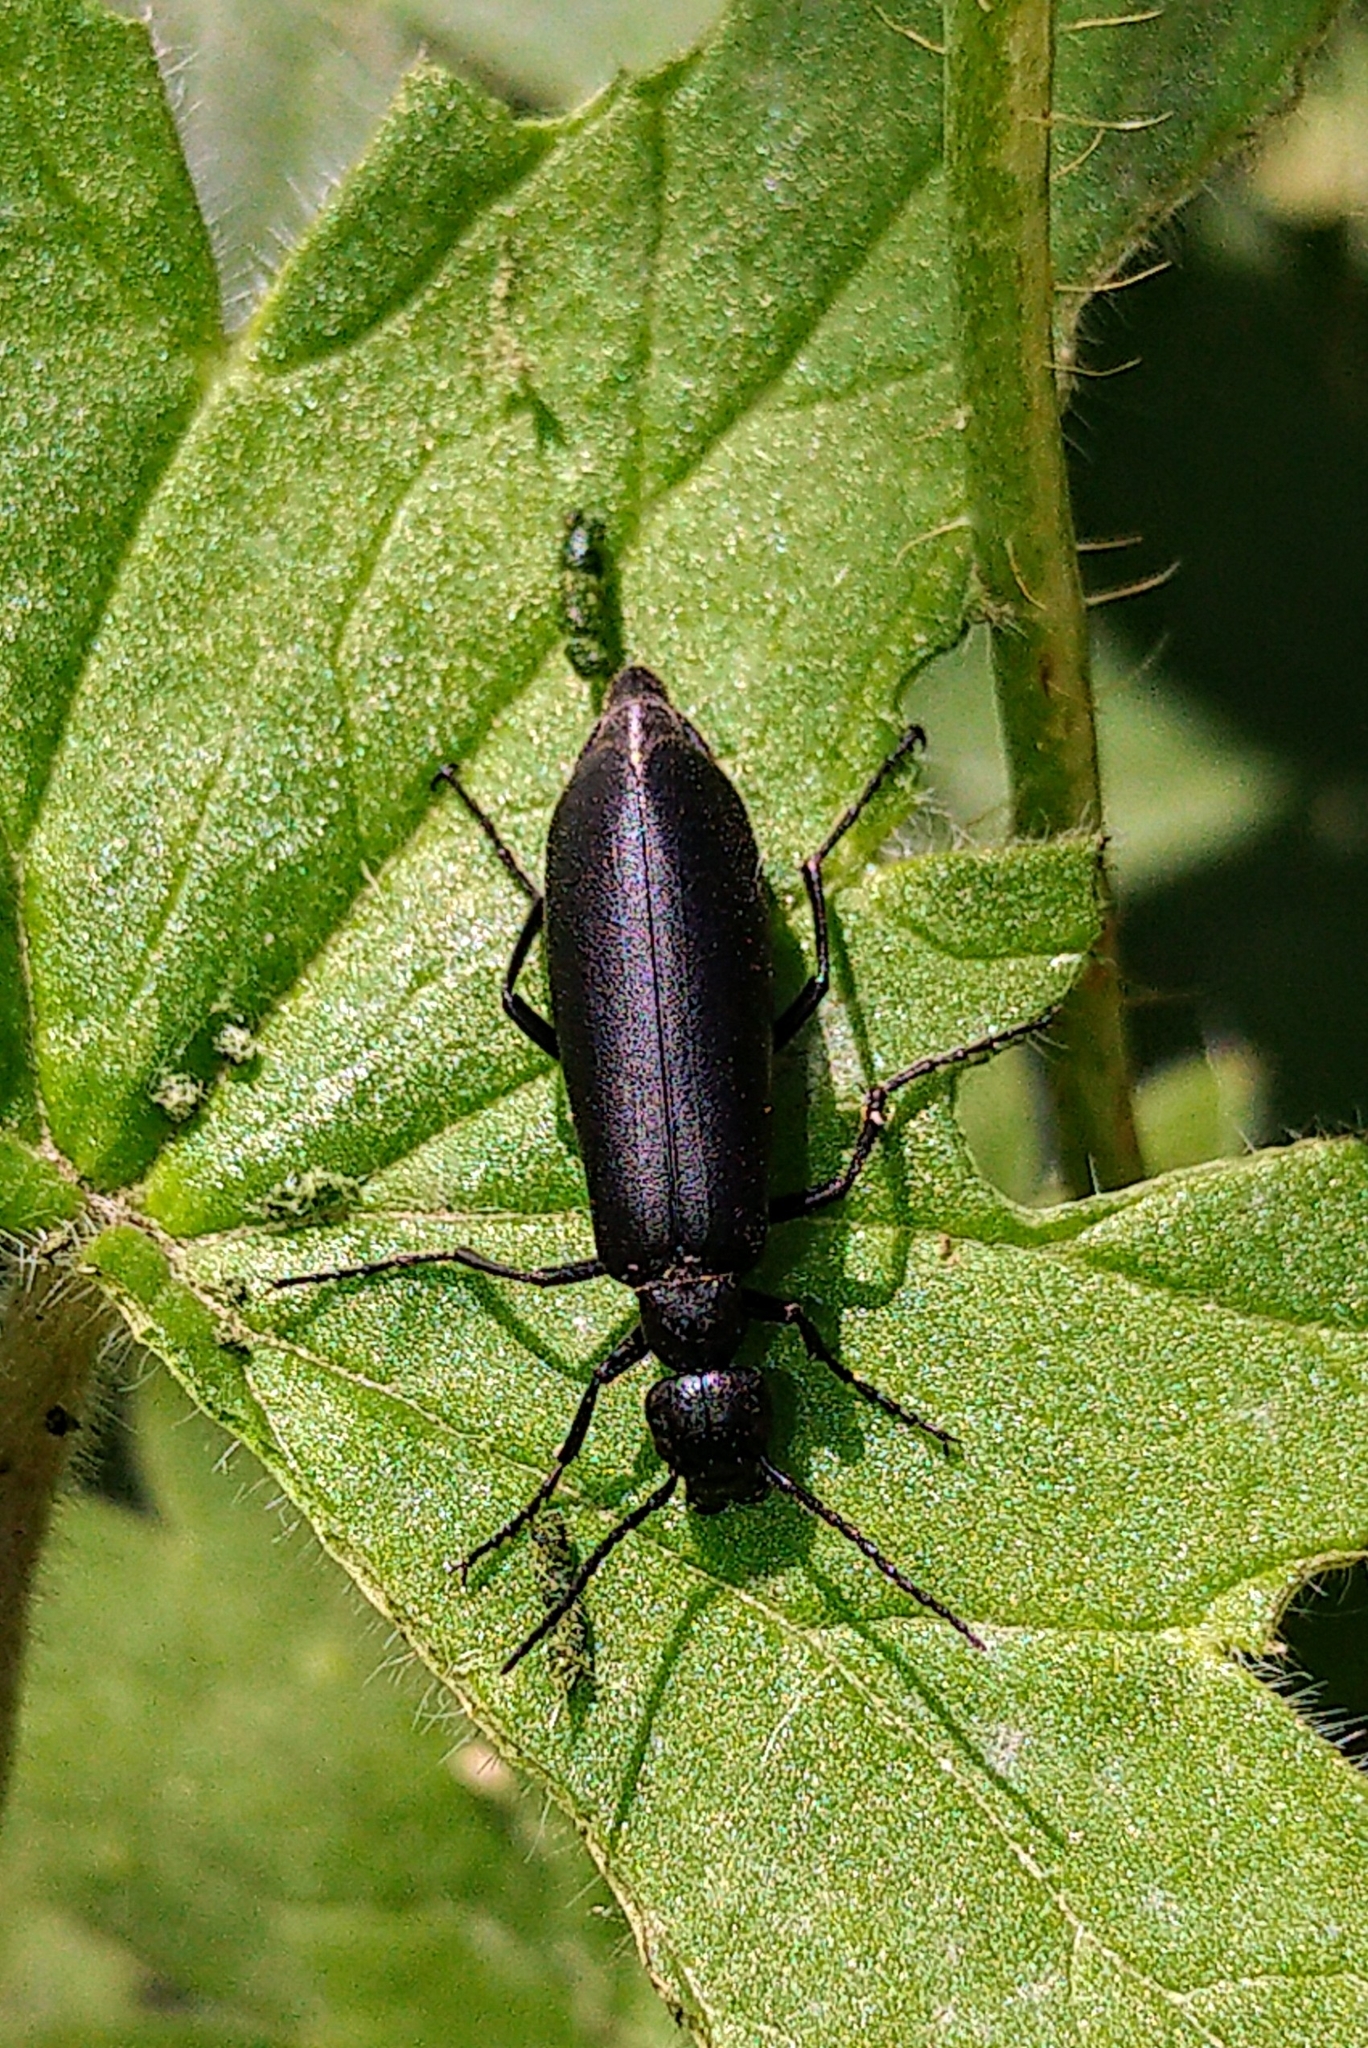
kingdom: Animalia
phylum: Arthropoda
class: Insecta
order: Coleoptera
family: Meloidae
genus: Epicauta
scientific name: Epicauta subglabra
